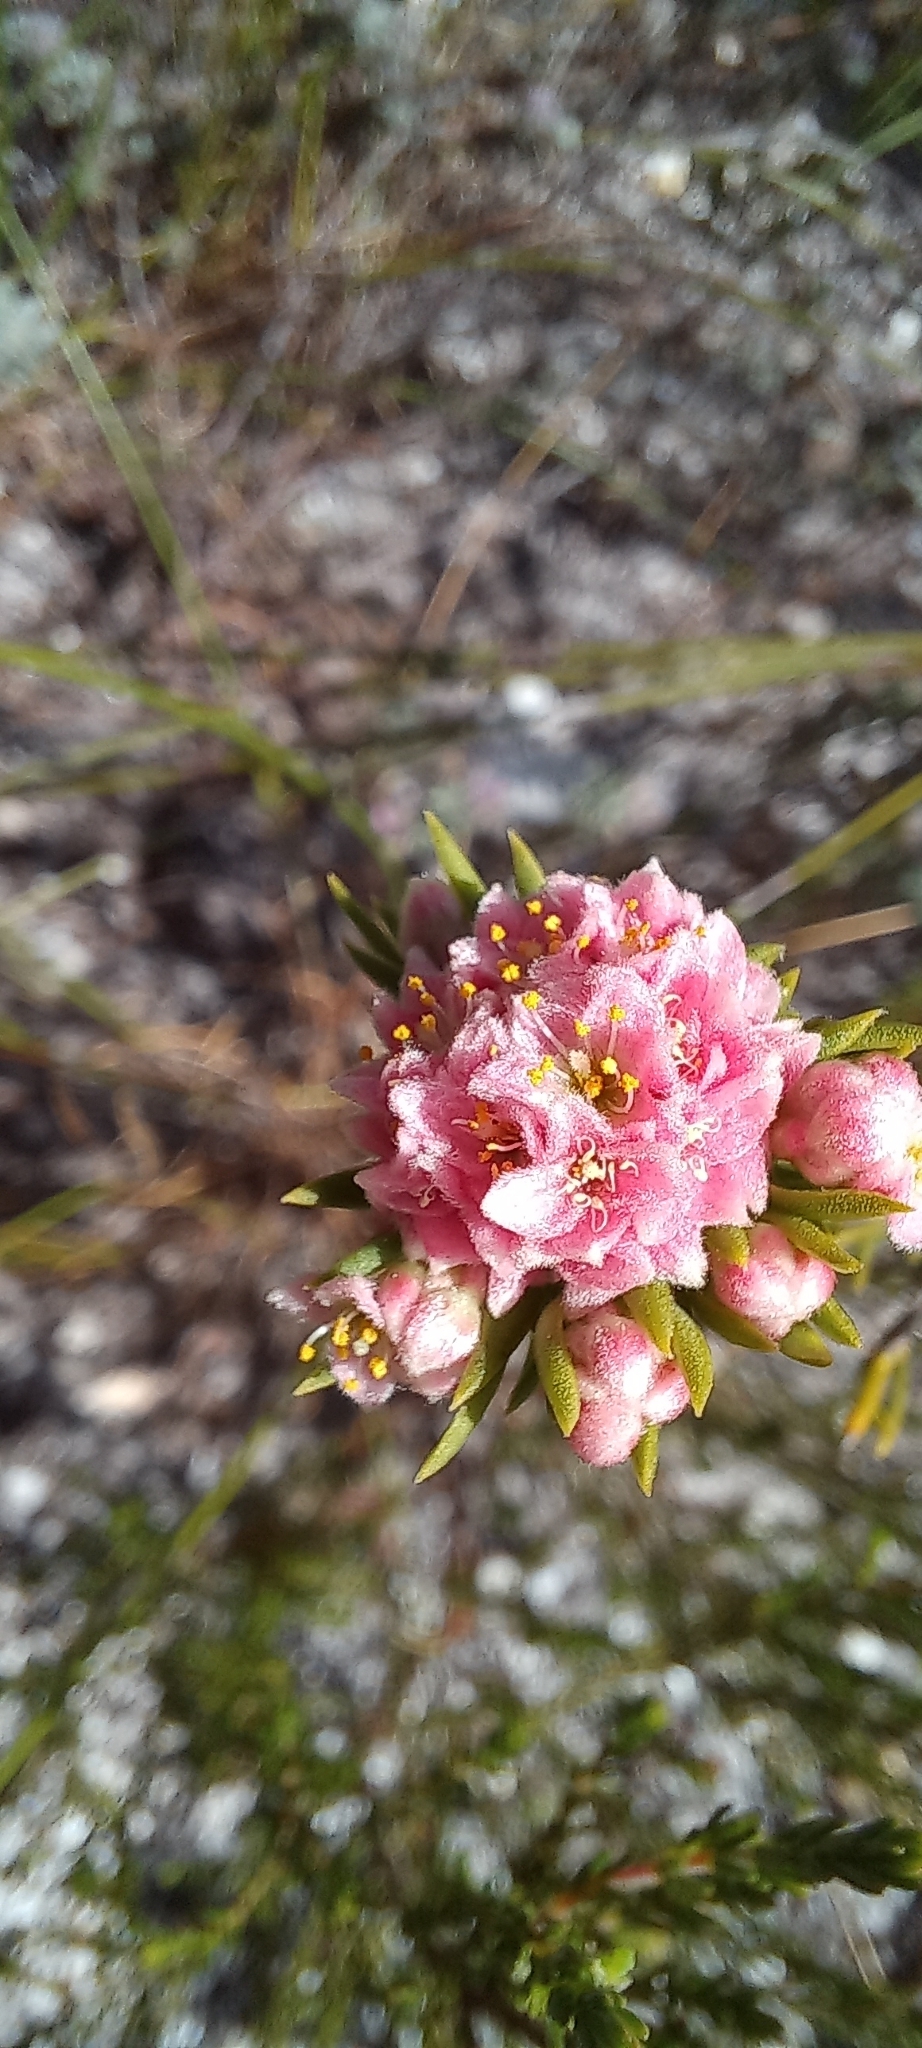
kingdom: Plantae
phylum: Tracheophyta
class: Magnoliopsida
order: Malvales
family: Thymelaeaceae
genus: Lachnaea
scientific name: Lachnaea densiflora
